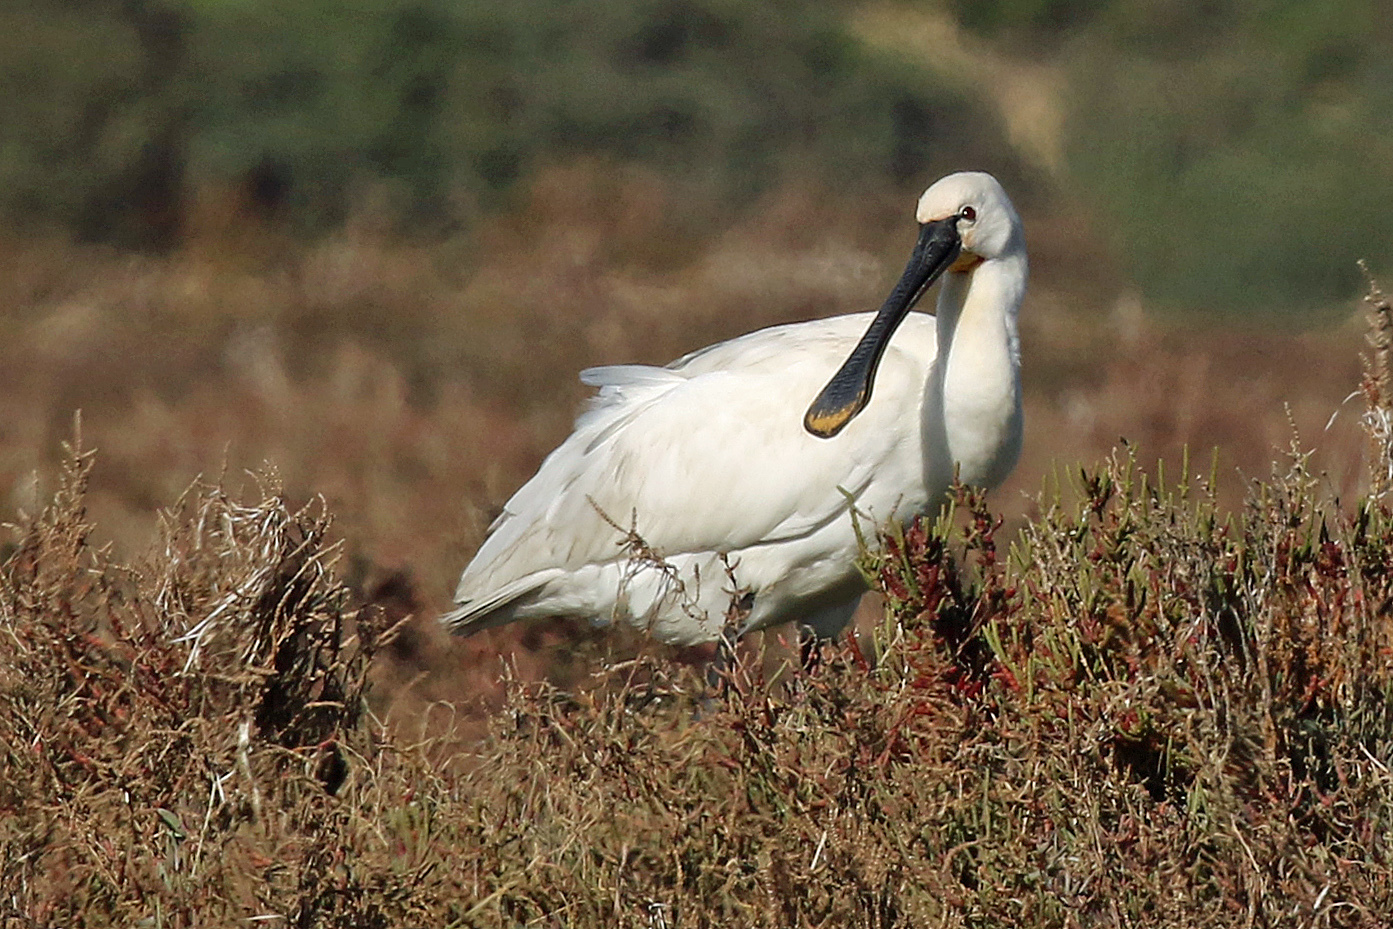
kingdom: Animalia
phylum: Chordata
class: Aves
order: Pelecaniformes
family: Threskiornithidae
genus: Platalea
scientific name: Platalea leucorodia
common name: Eurasian spoonbill
